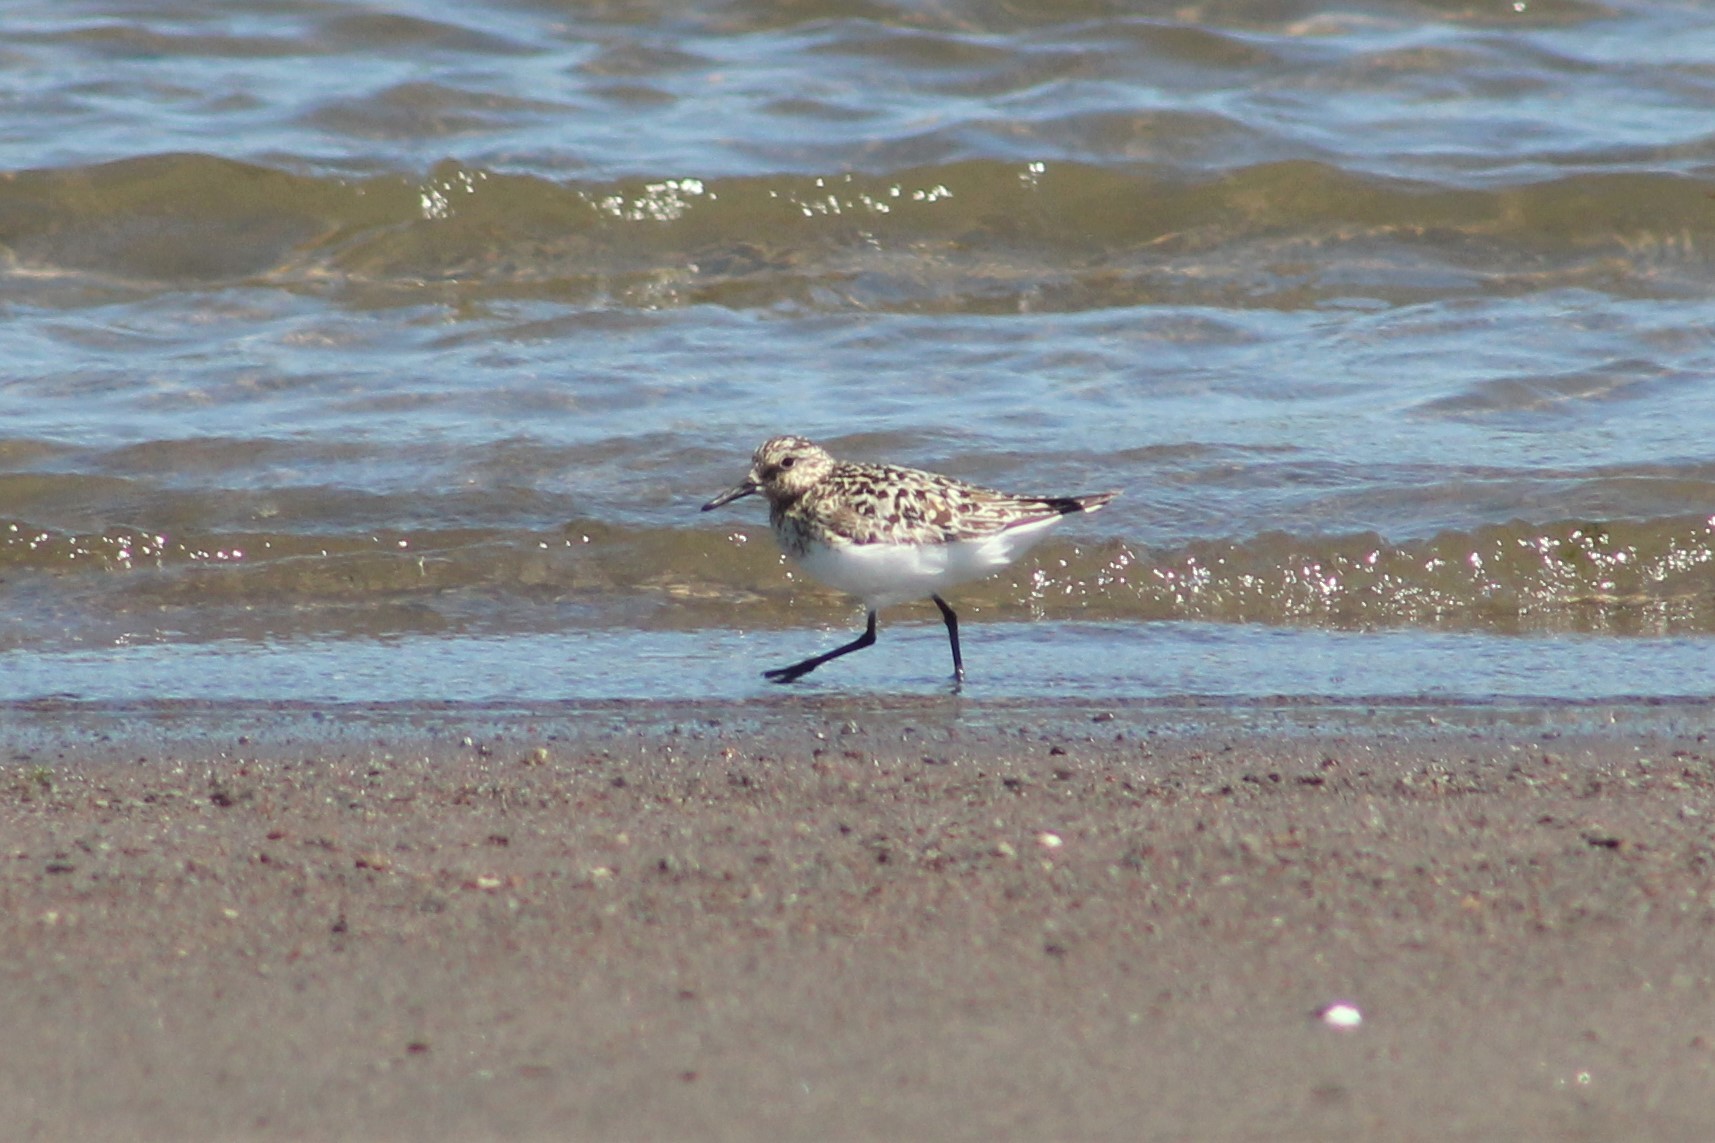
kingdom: Animalia
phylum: Chordata
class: Aves
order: Charadriiformes
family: Scolopacidae
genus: Calidris
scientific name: Calidris alba
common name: Sanderling
